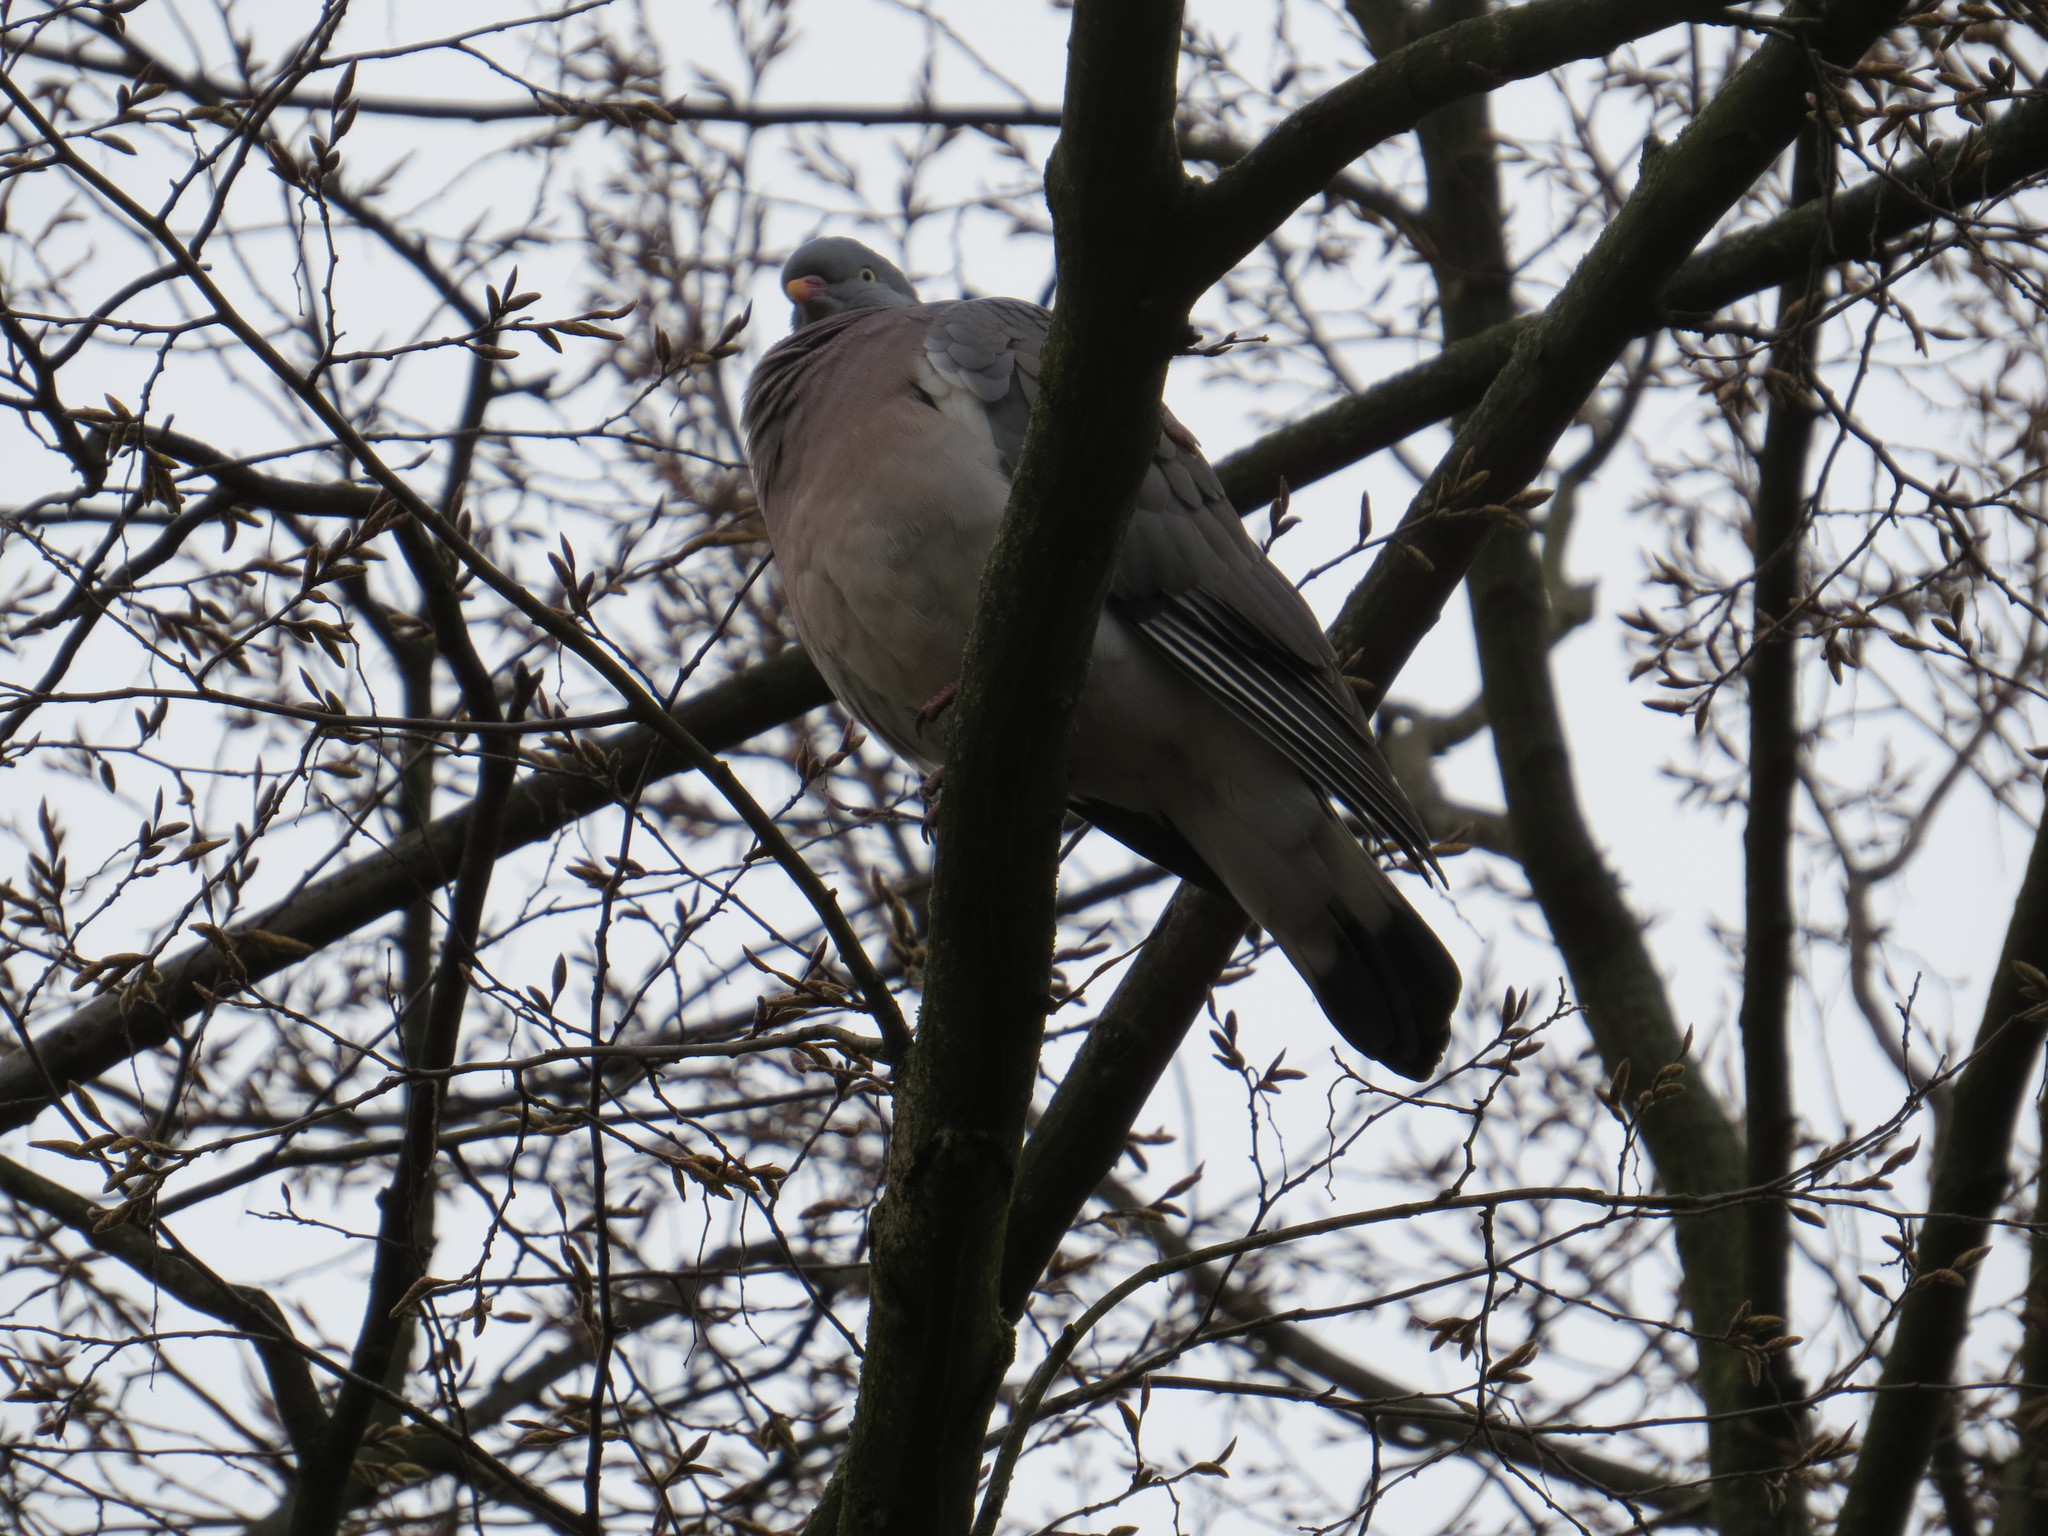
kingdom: Animalia
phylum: Chordata
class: Aves
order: Columbiformes
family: Columbidae
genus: Columba
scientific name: Columba palumbus
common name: Common wood pigeon
